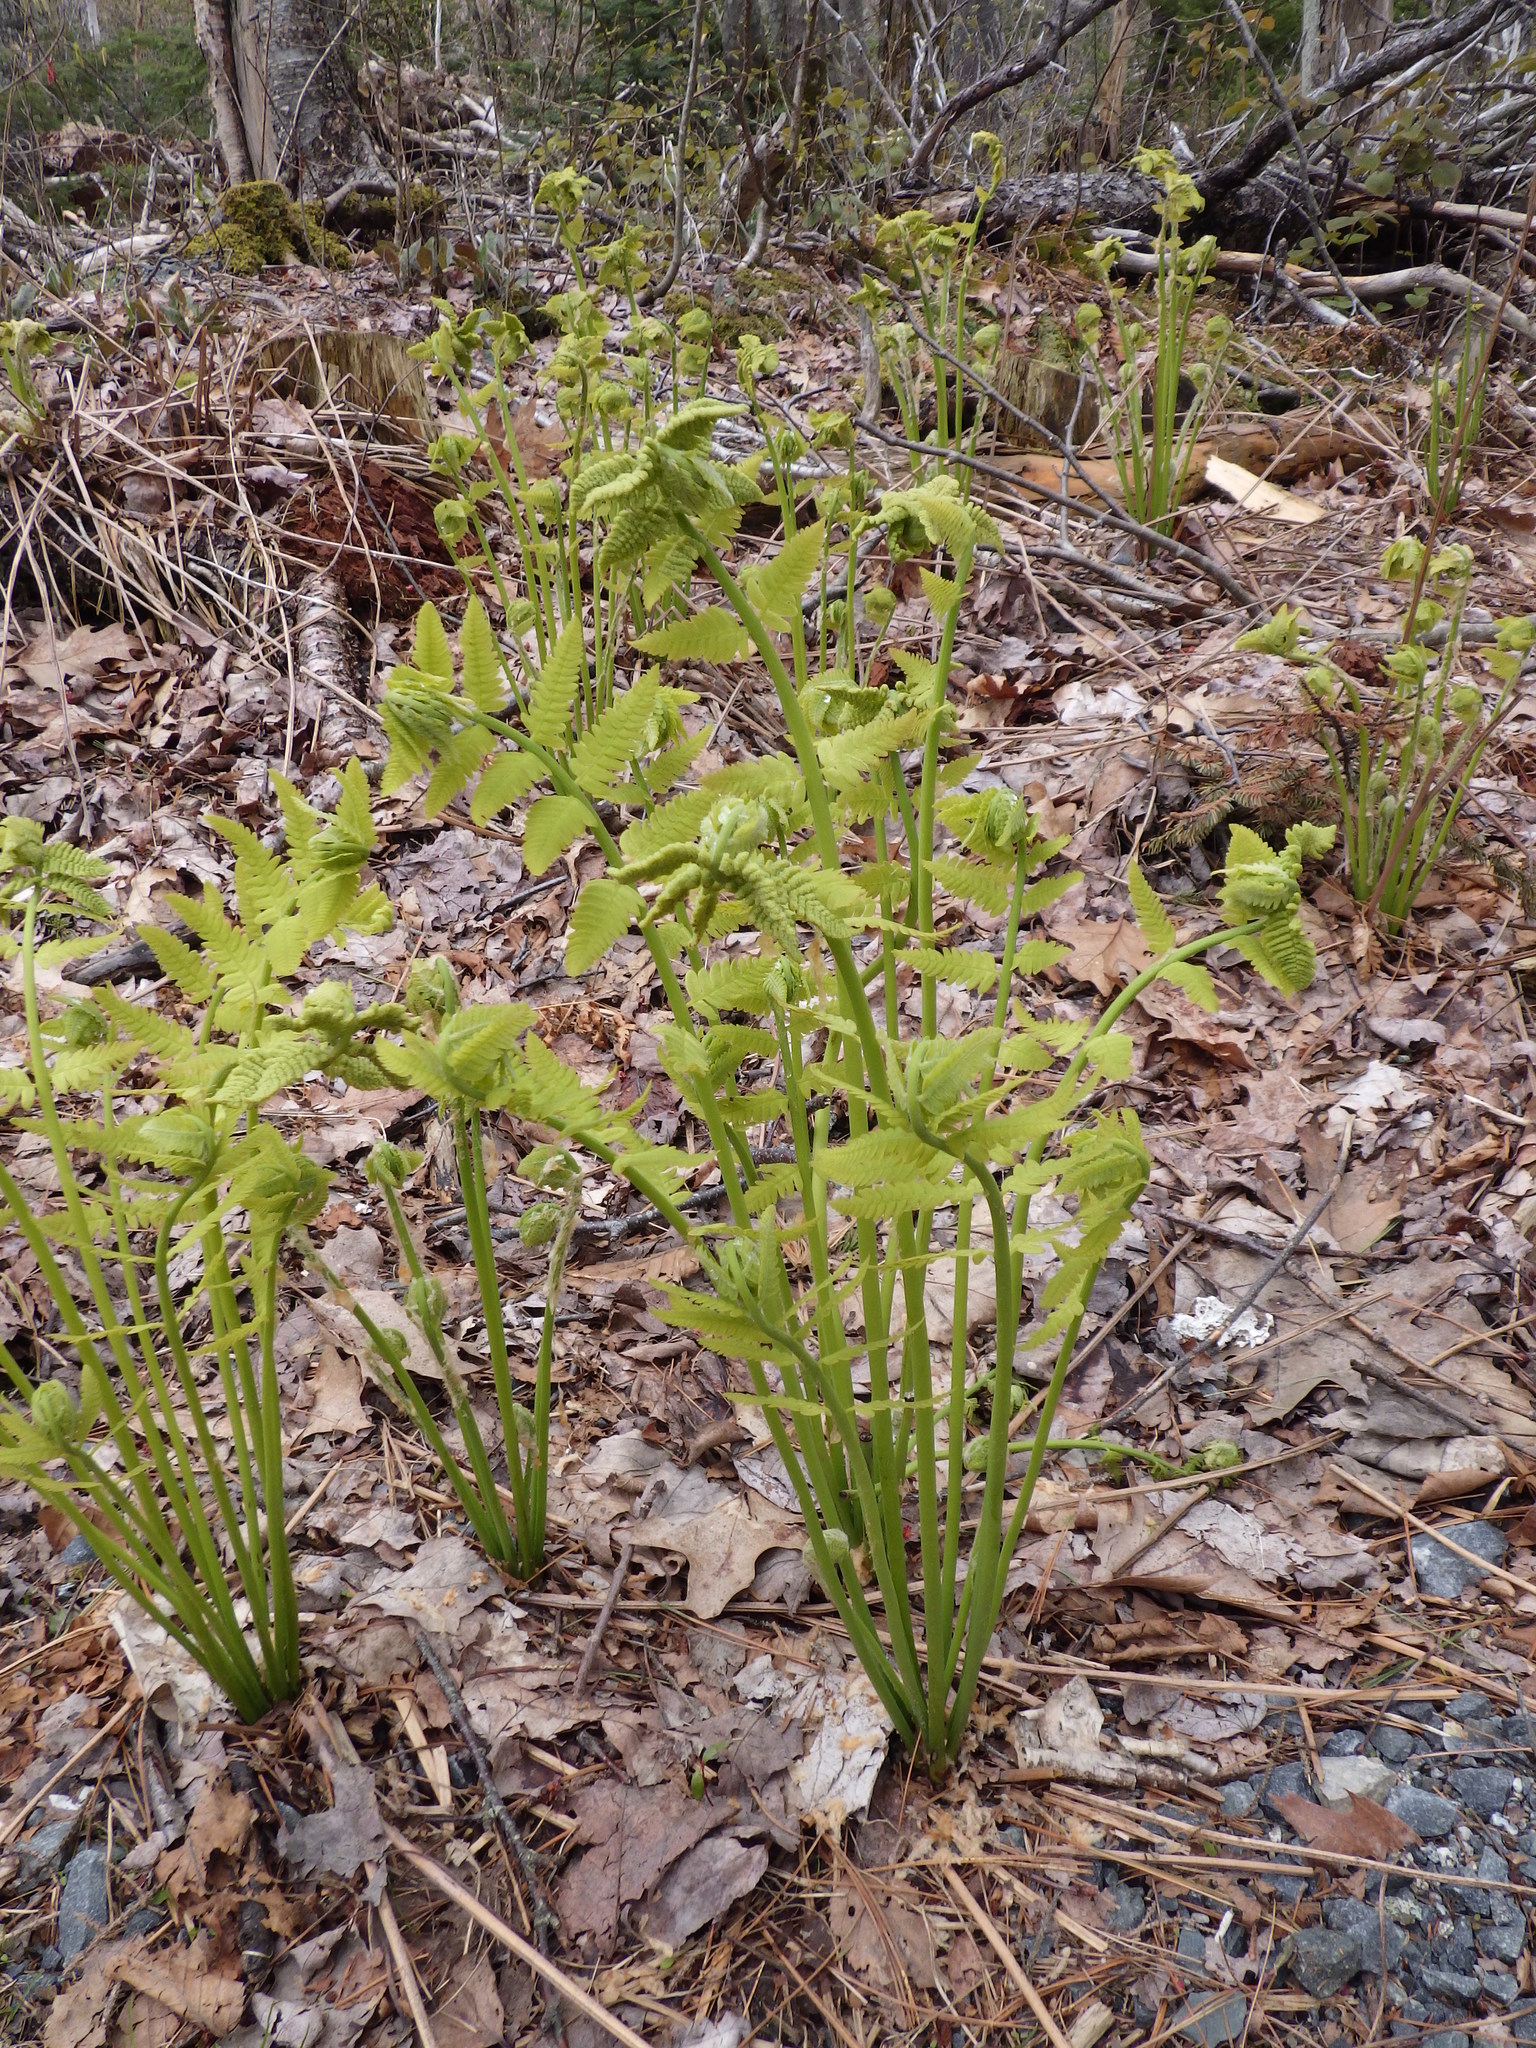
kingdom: Plantae
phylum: Tracheophyta
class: Polypodiopsida
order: Osmundales
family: Osmundaceae
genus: Osmundastrum
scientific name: Osmundastrum cinnamomeum
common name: Cinnamon fern
